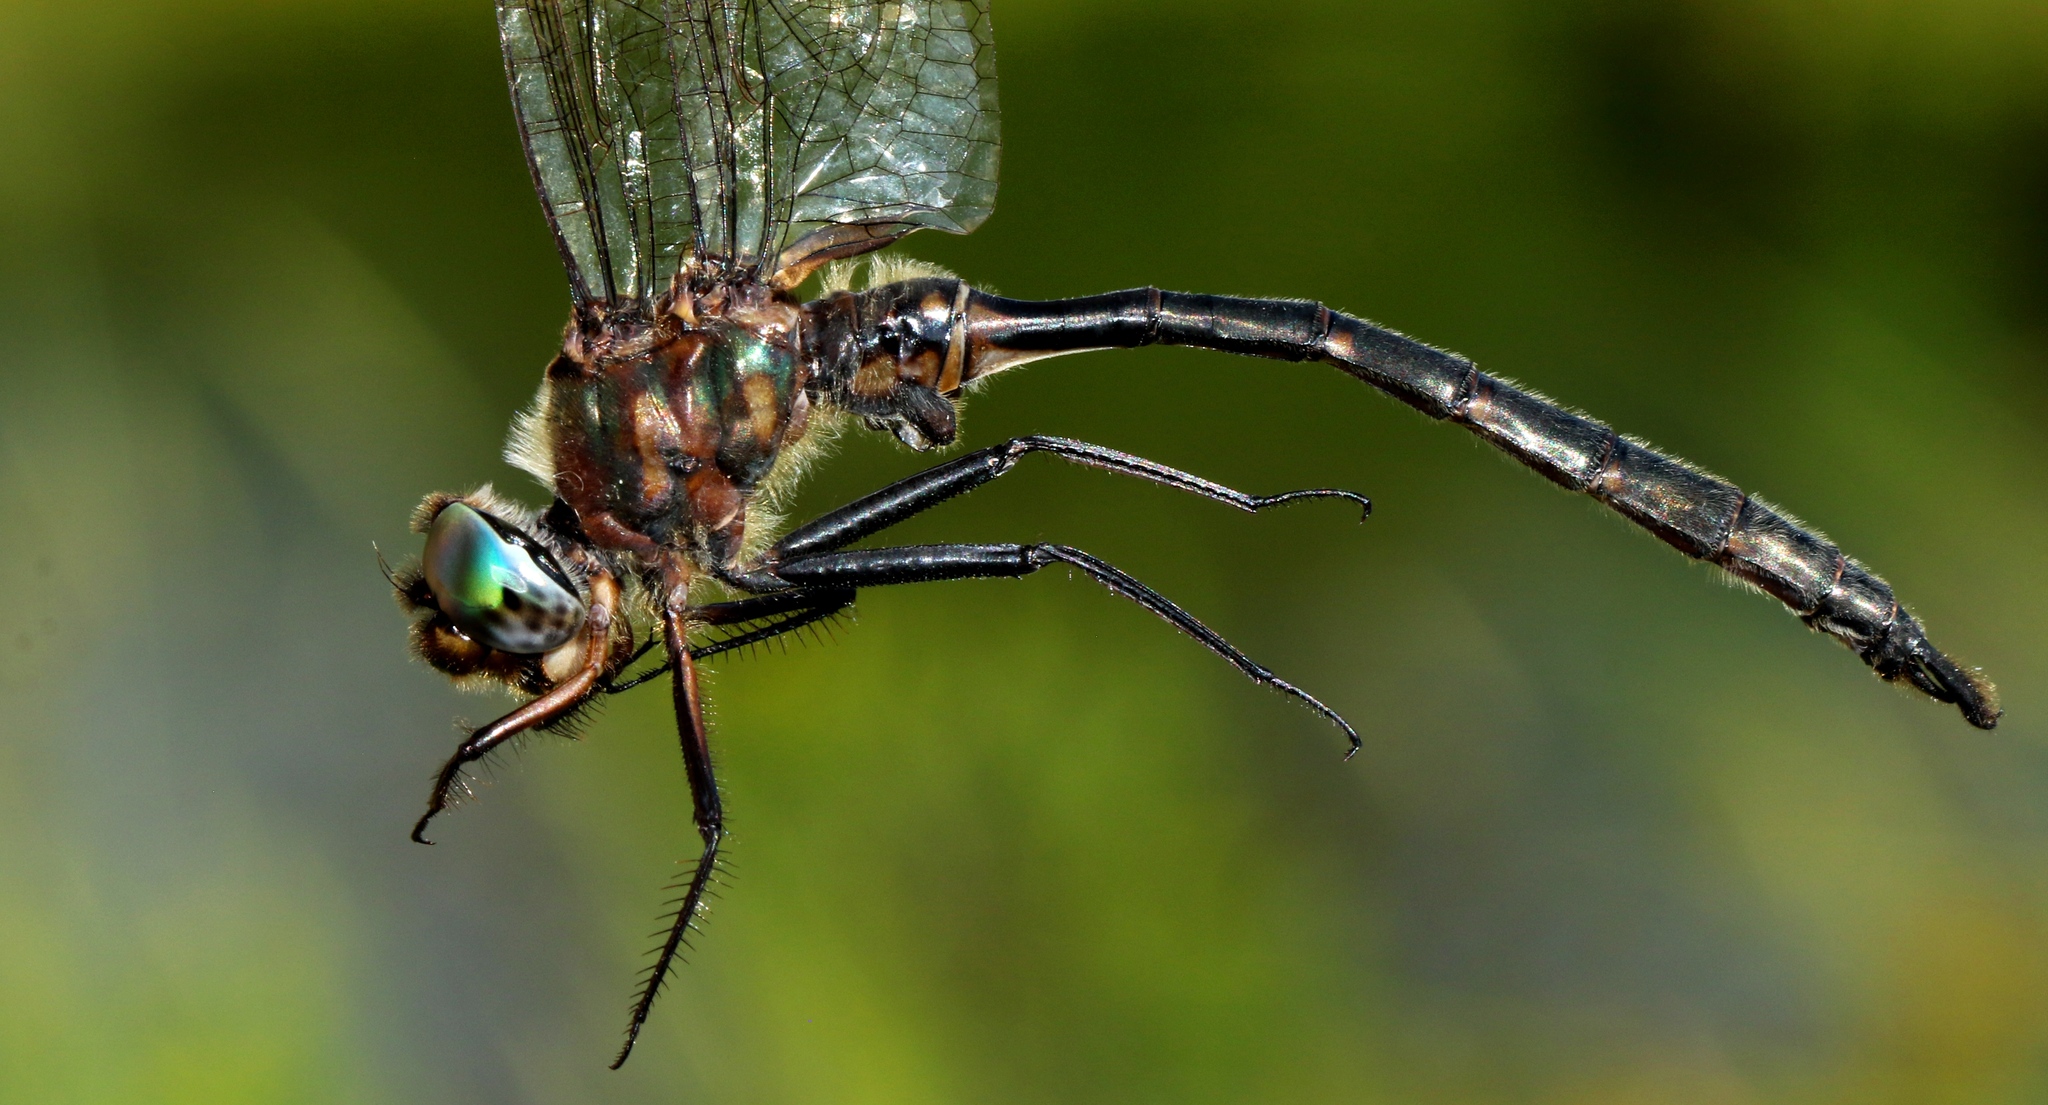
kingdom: Animalia
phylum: Arthropoda
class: Insecta
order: Odonata
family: Corduliidae
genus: Somatochlora
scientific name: Somatochlora williamsoni
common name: Williamson's emerald
